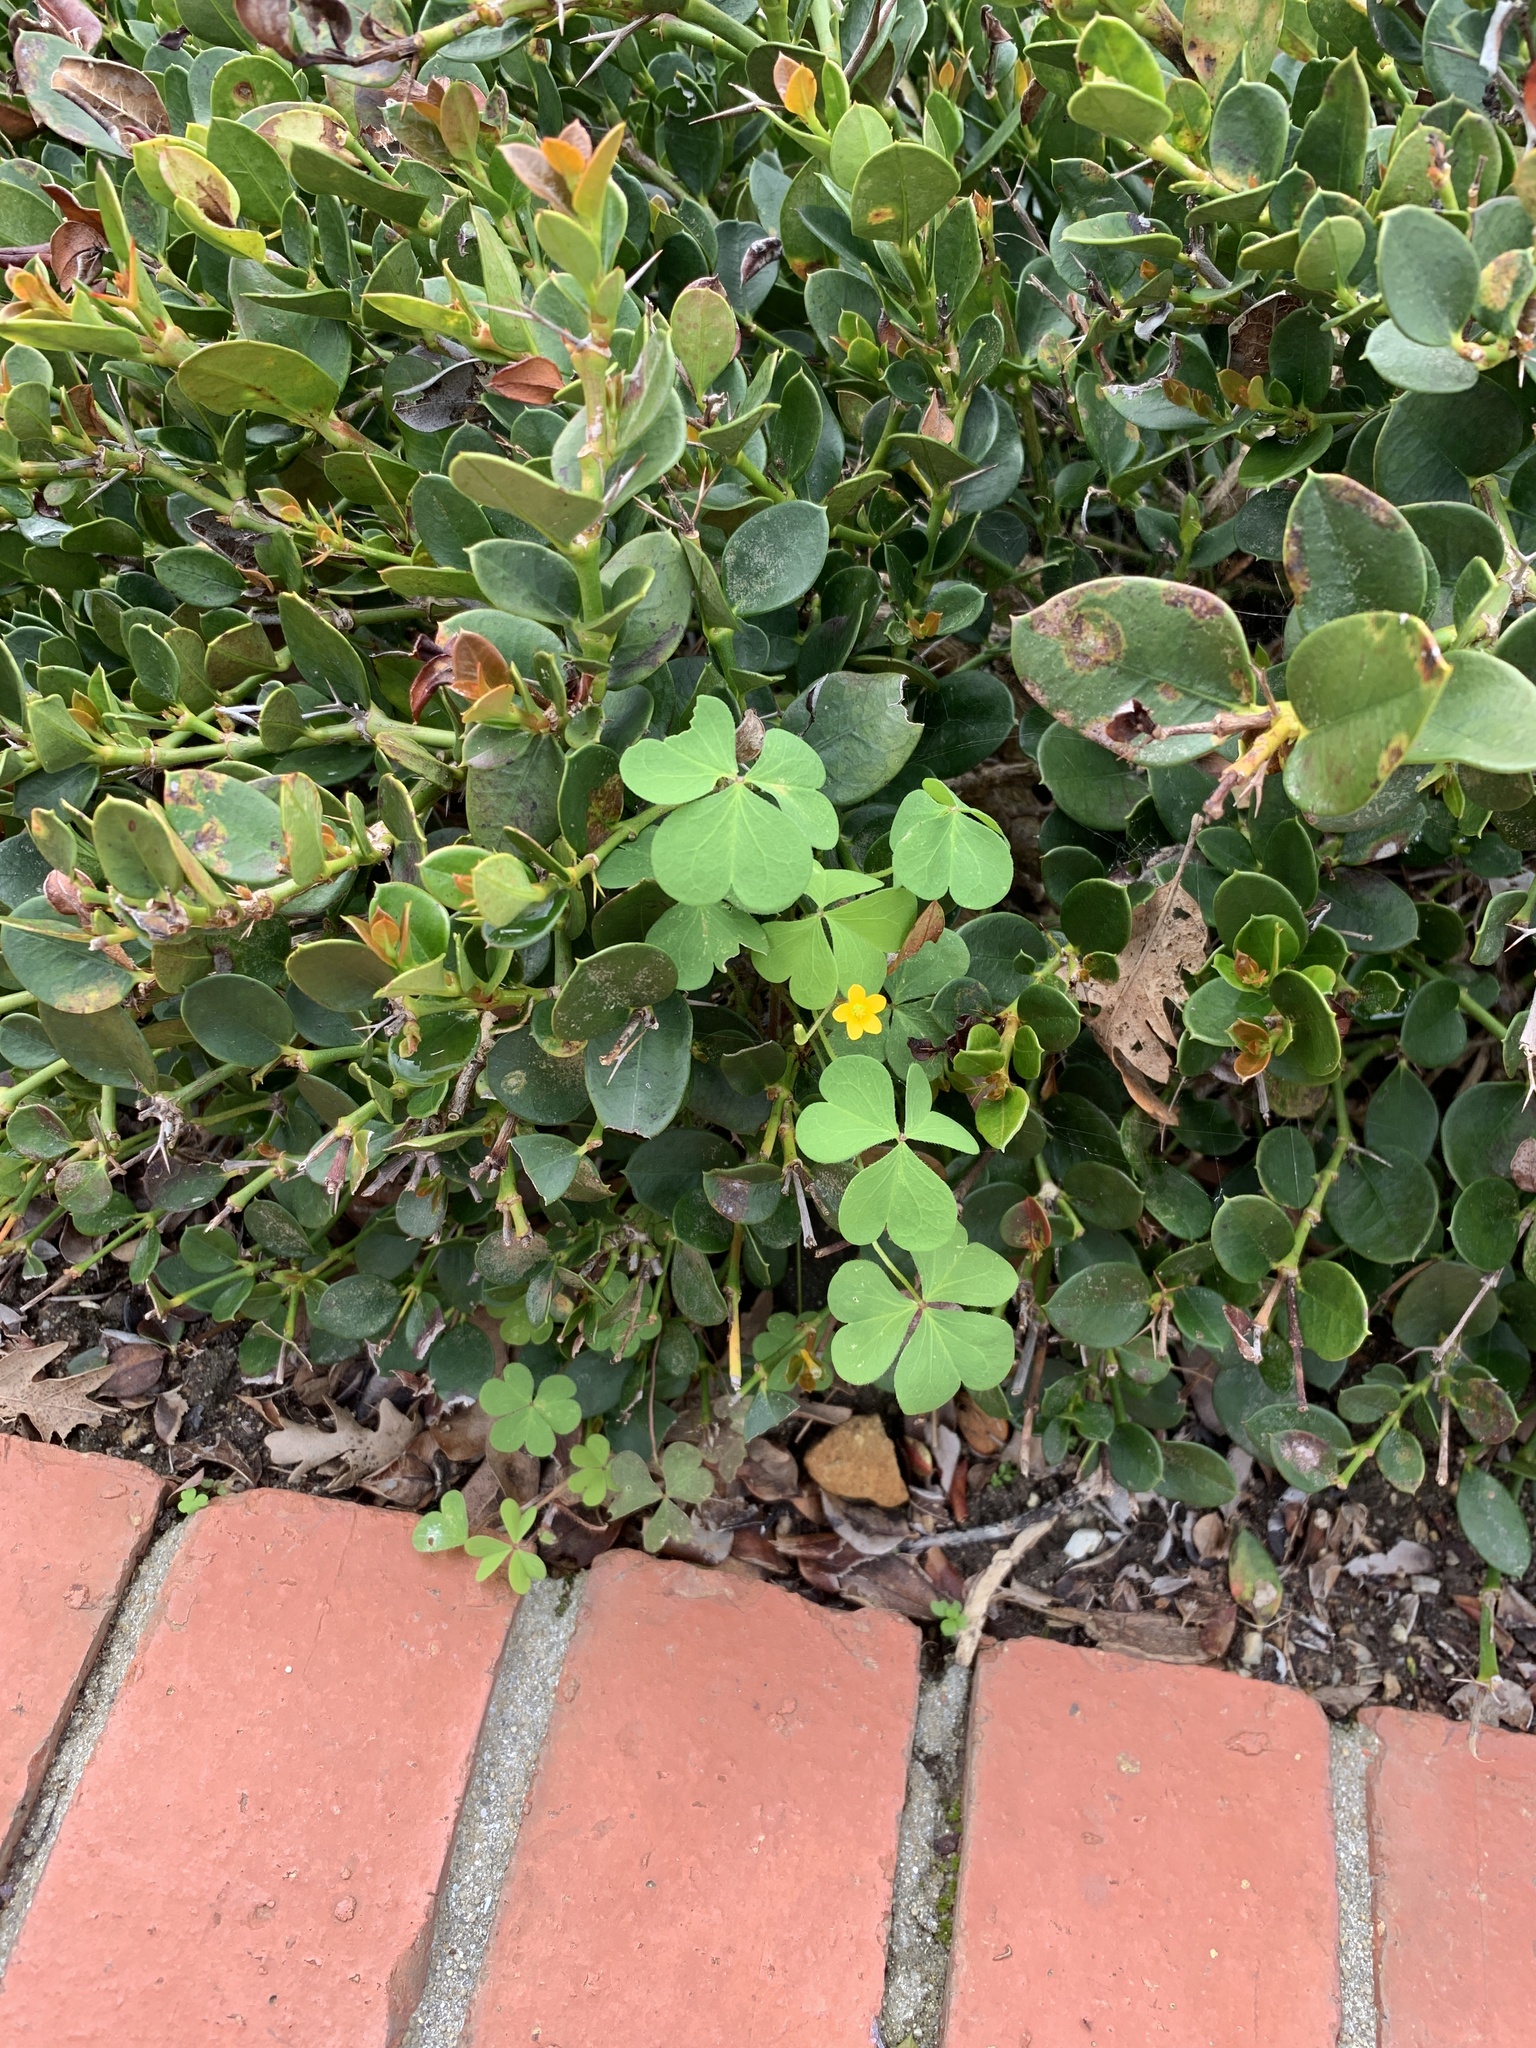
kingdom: Plantae
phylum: Tracheophyta
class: Magnoliopsida
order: Oxalidales
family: Oxalidaceae
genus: Oxalis
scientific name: Oxalis corniculata
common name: Procumbent yellow-sorrel
